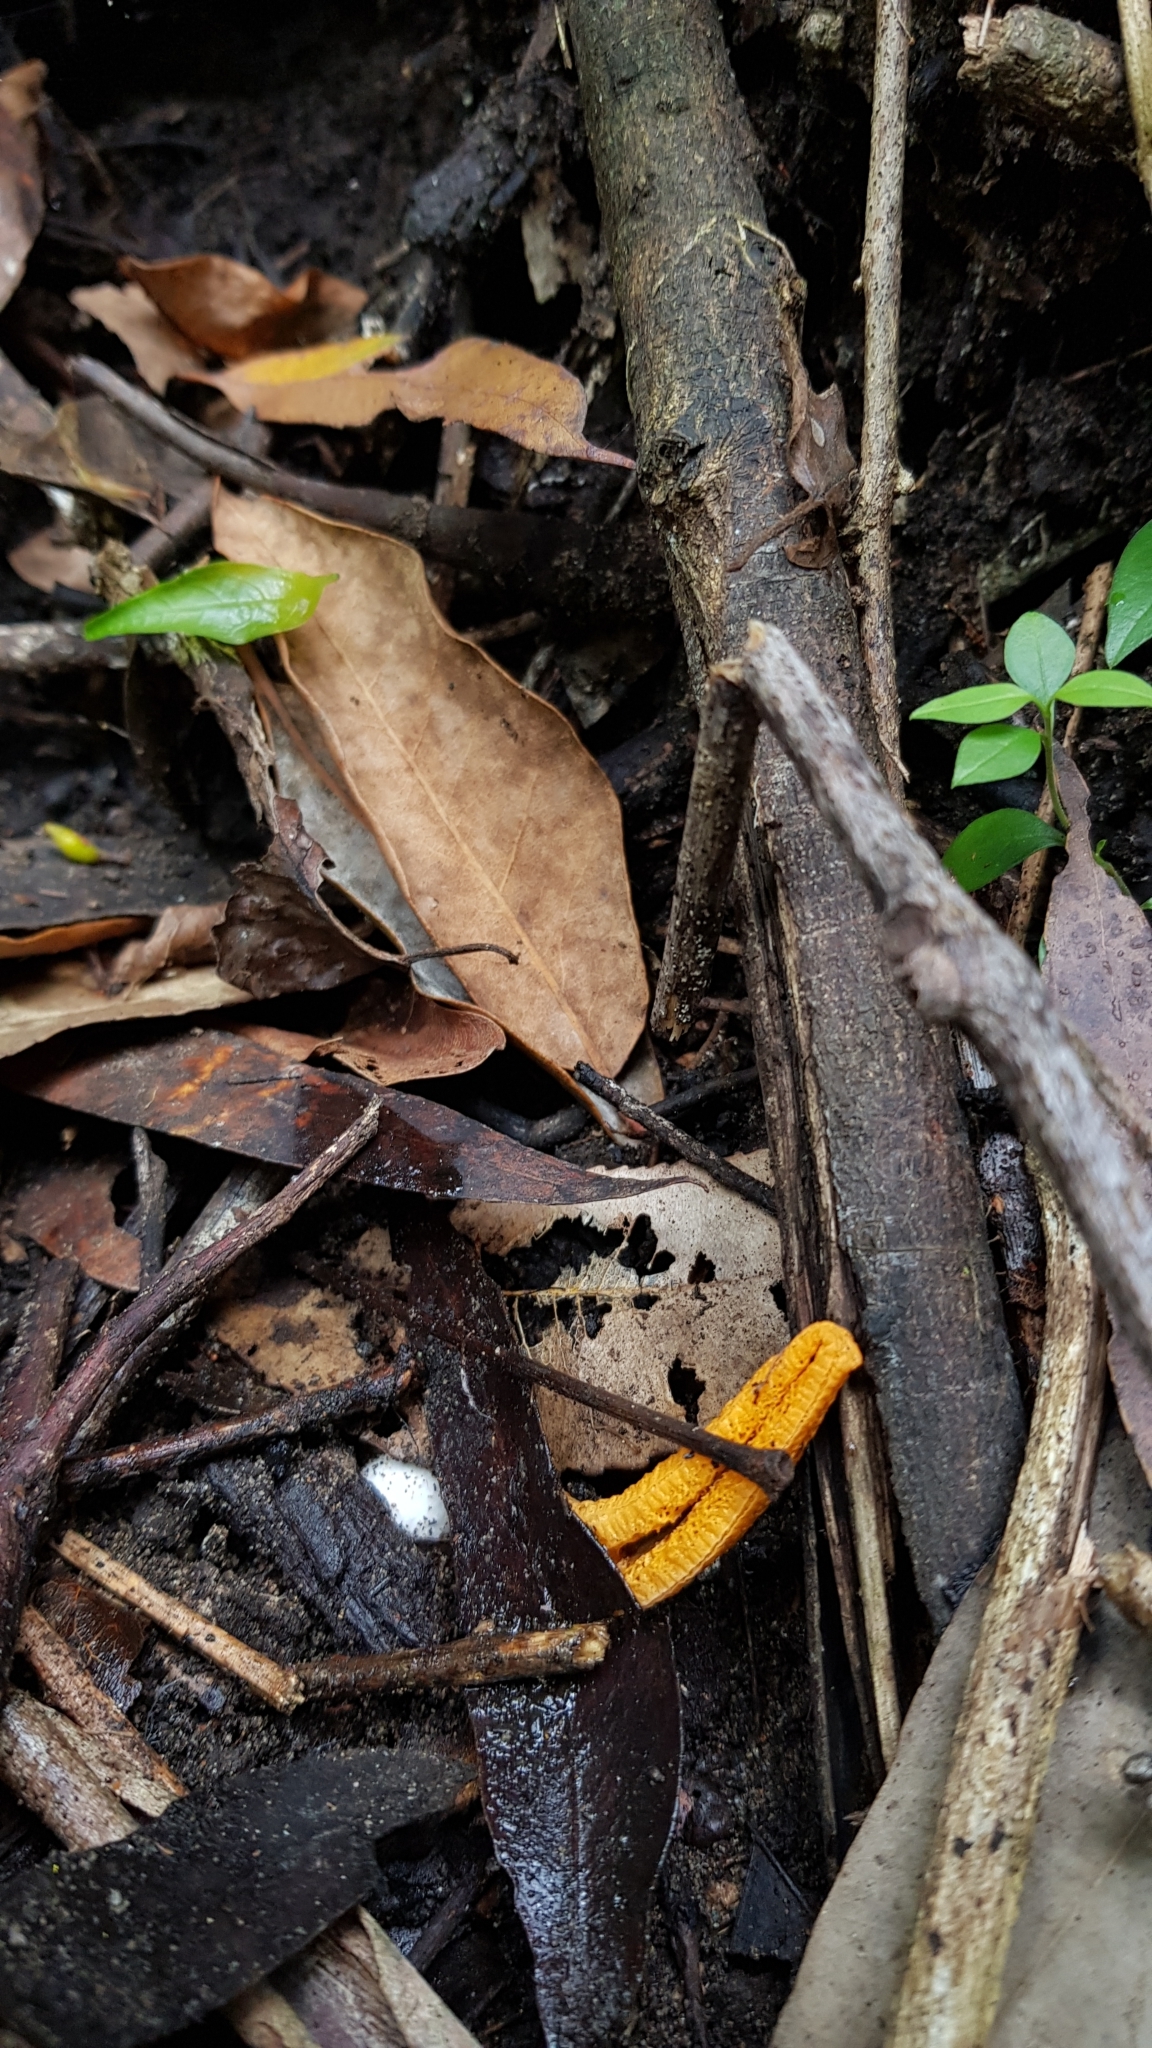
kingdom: Fungi
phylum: Basidiomycota
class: Agaricomycetes
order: Phallales
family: Phallaceae
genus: Pseudocolus
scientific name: Pseudocolus fusiformis
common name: Stinky squid
